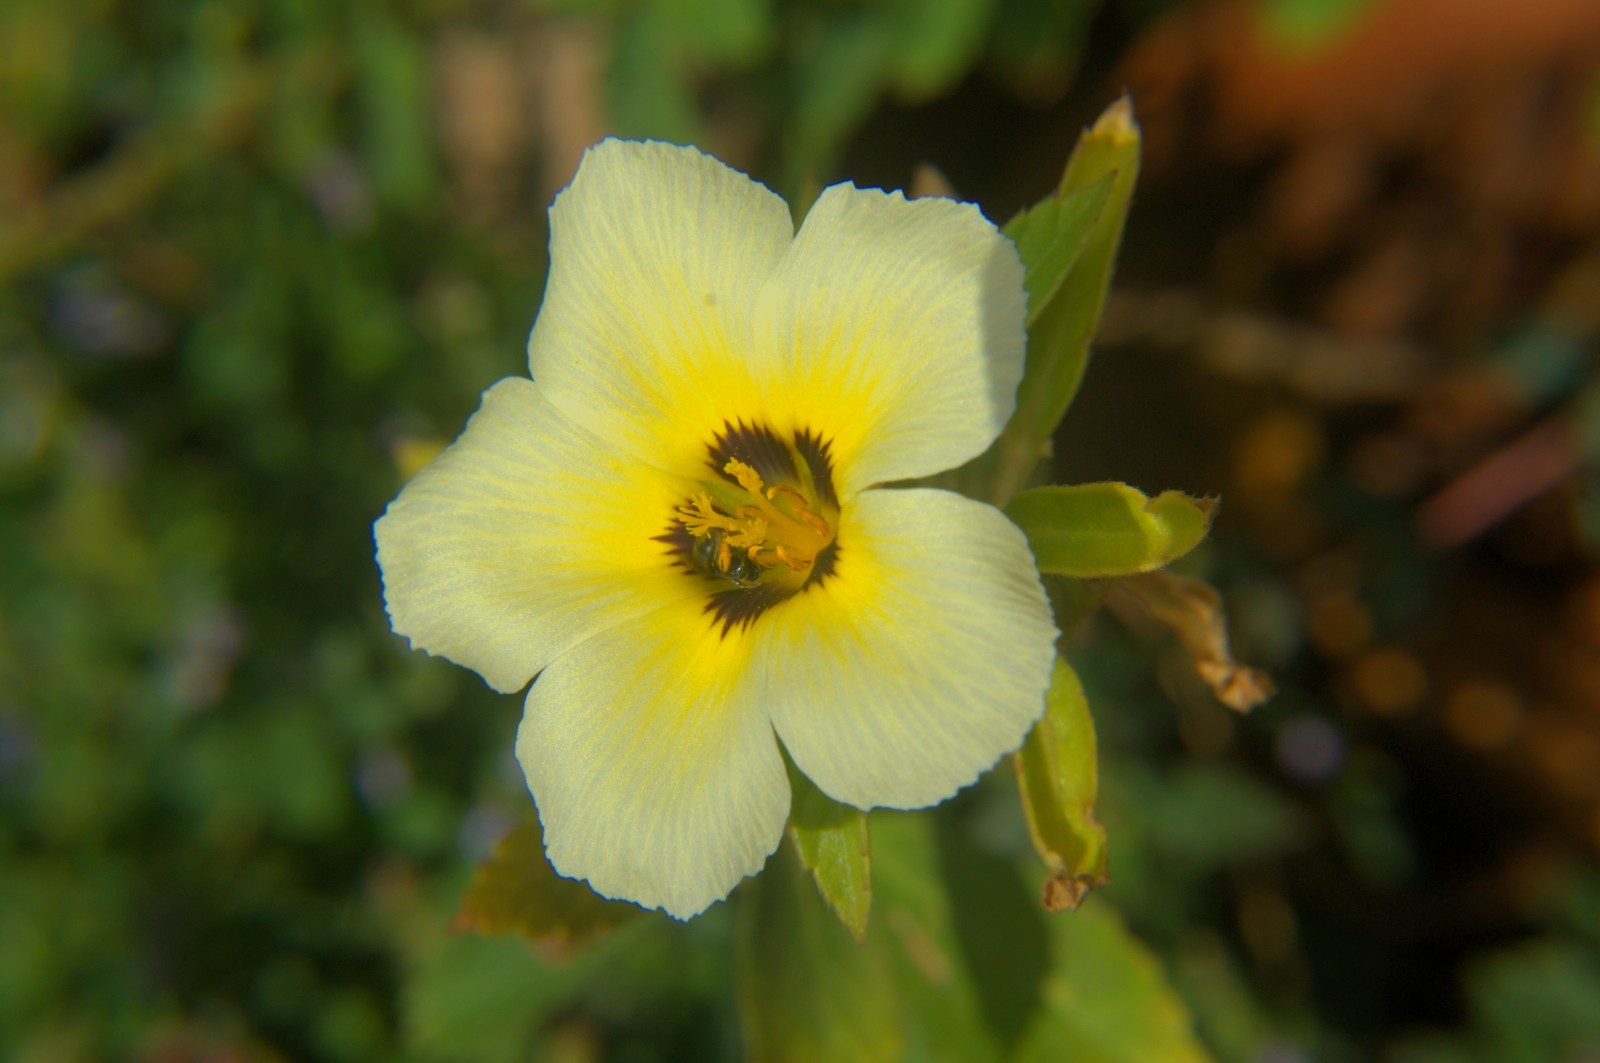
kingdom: Plantae
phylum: Tracheophyta
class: Magnoliopsida
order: Malpighiales
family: Turneraceae
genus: Turnera
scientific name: Turnera subulata
